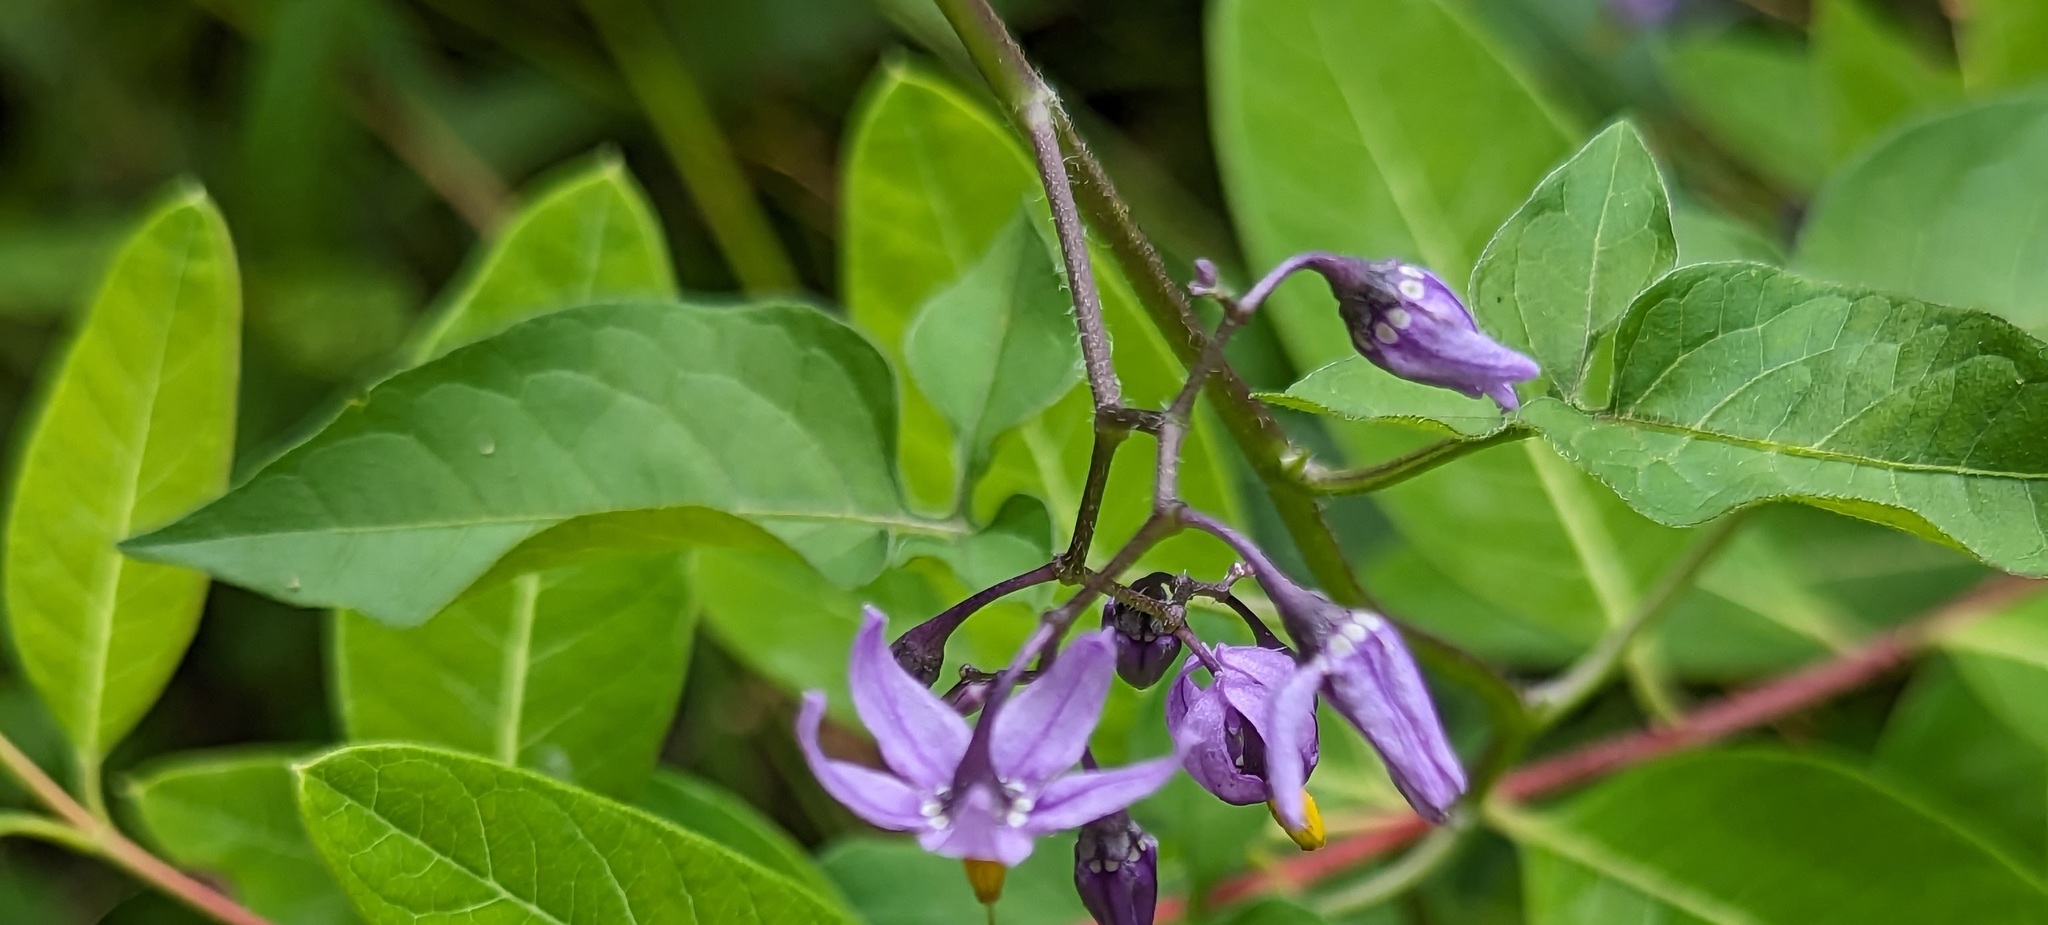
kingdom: Plantae
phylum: Tracheophyta
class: Magnoliopsida
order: Solanales
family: Solanaceae
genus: Solanum
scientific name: Solanum dulcamara
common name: Climbing nightshade
